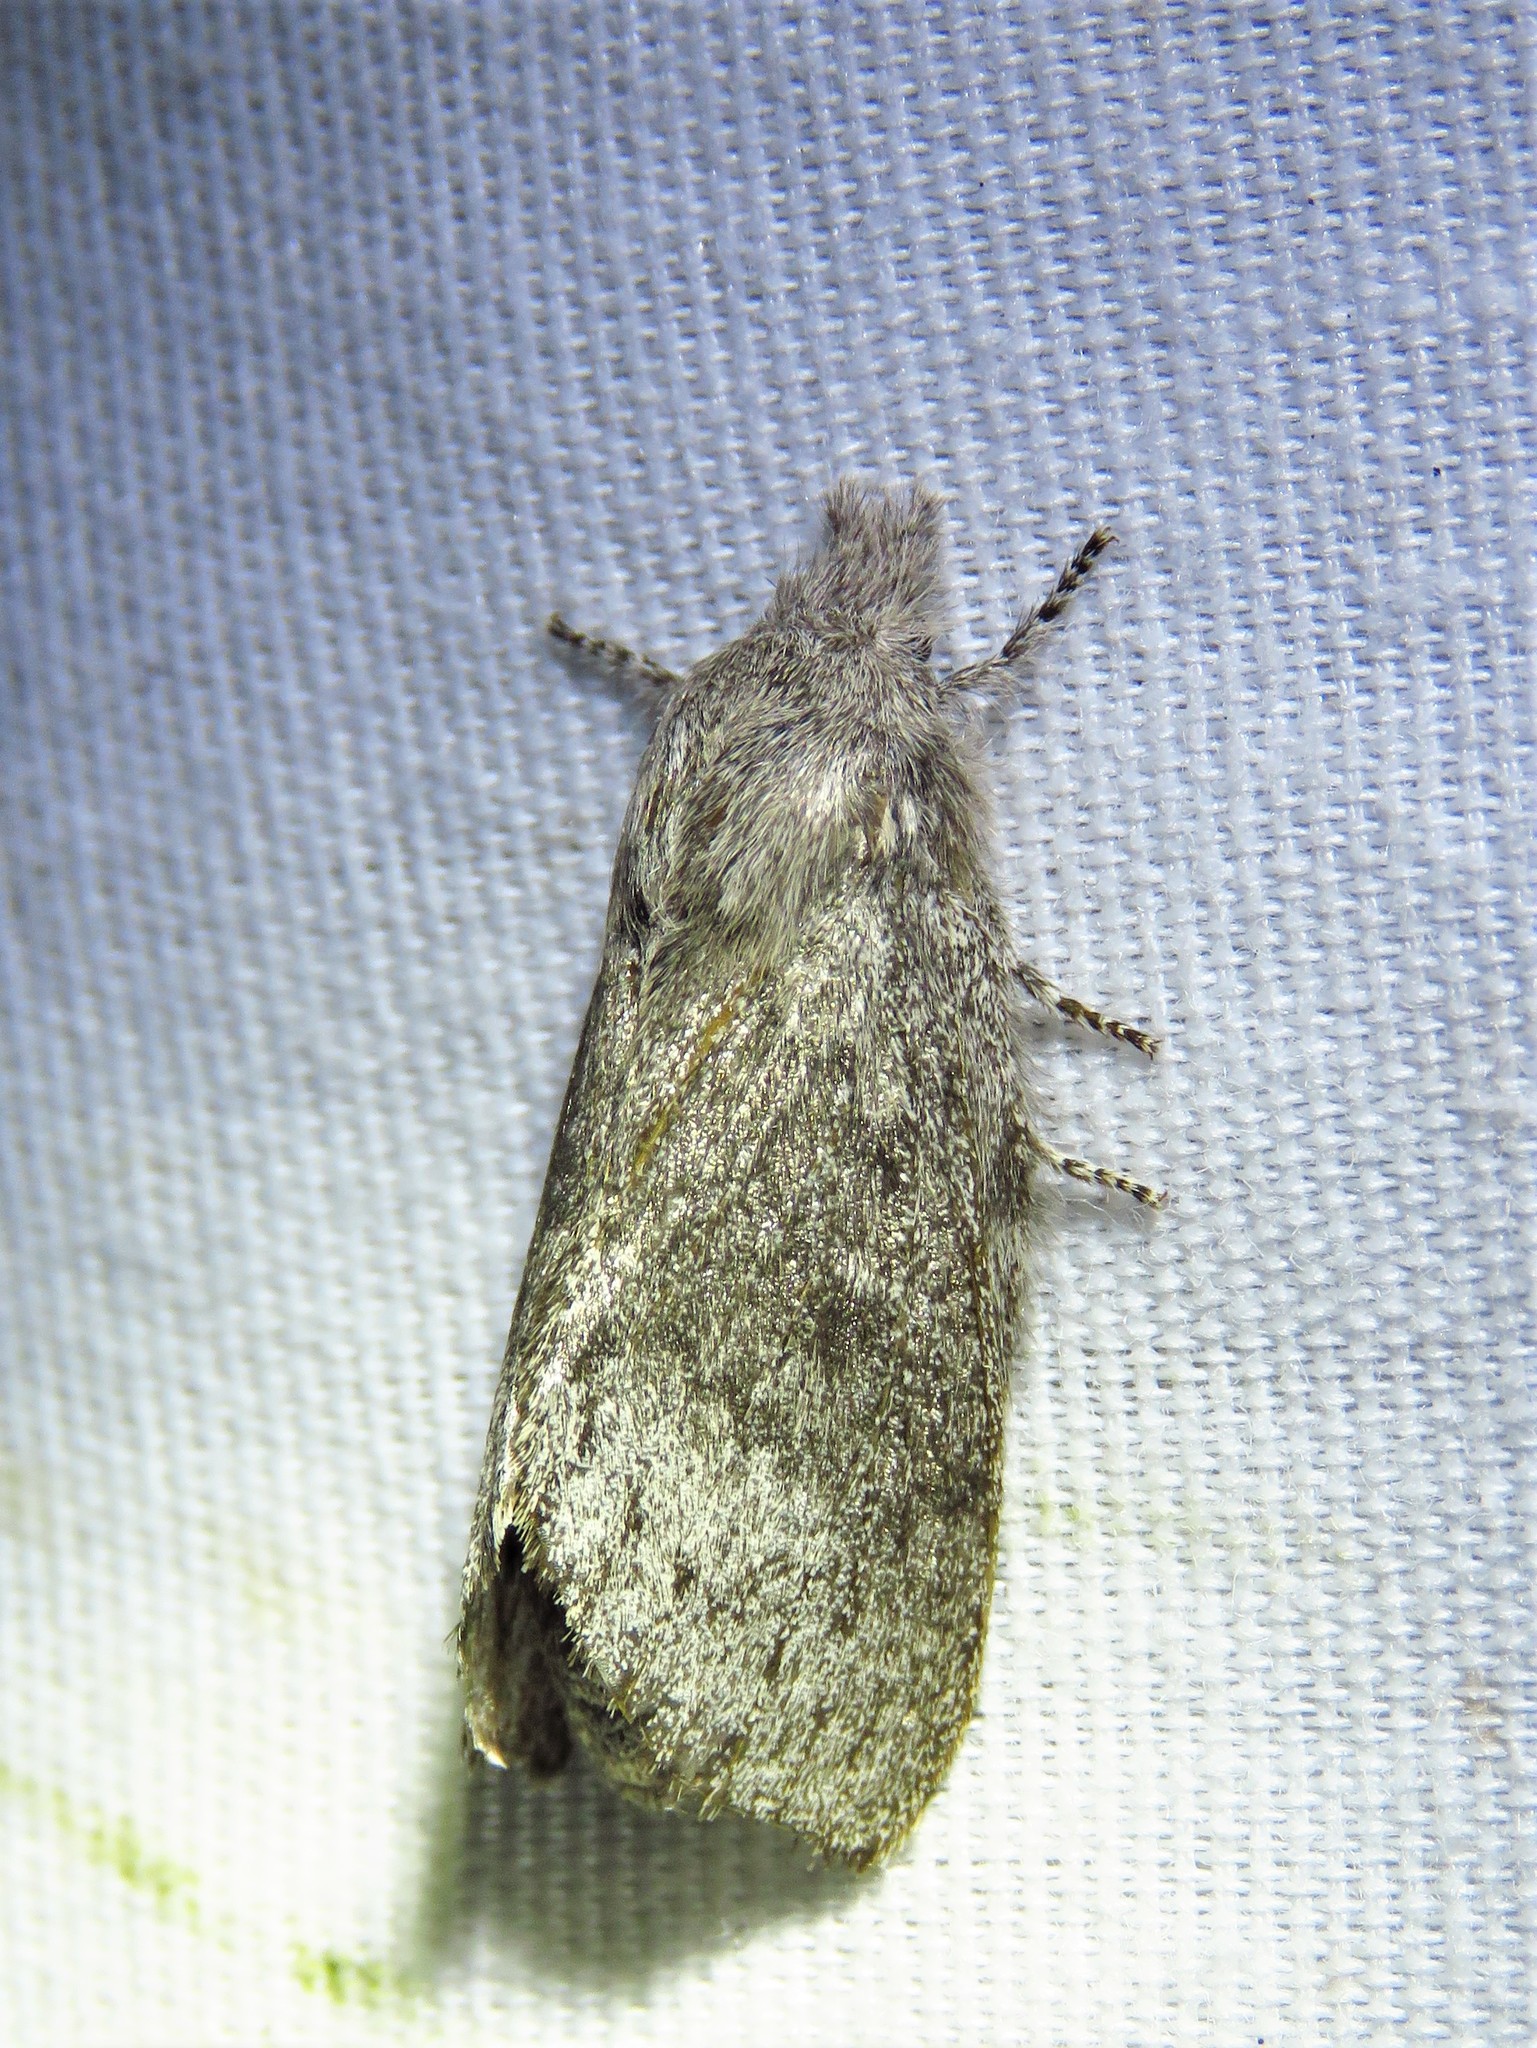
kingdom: Animalia
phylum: Arthropoda
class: Insecta
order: Lepidoptera
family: Lasiocampidae
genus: Heteropacha
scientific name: Heteropacha rileyana
